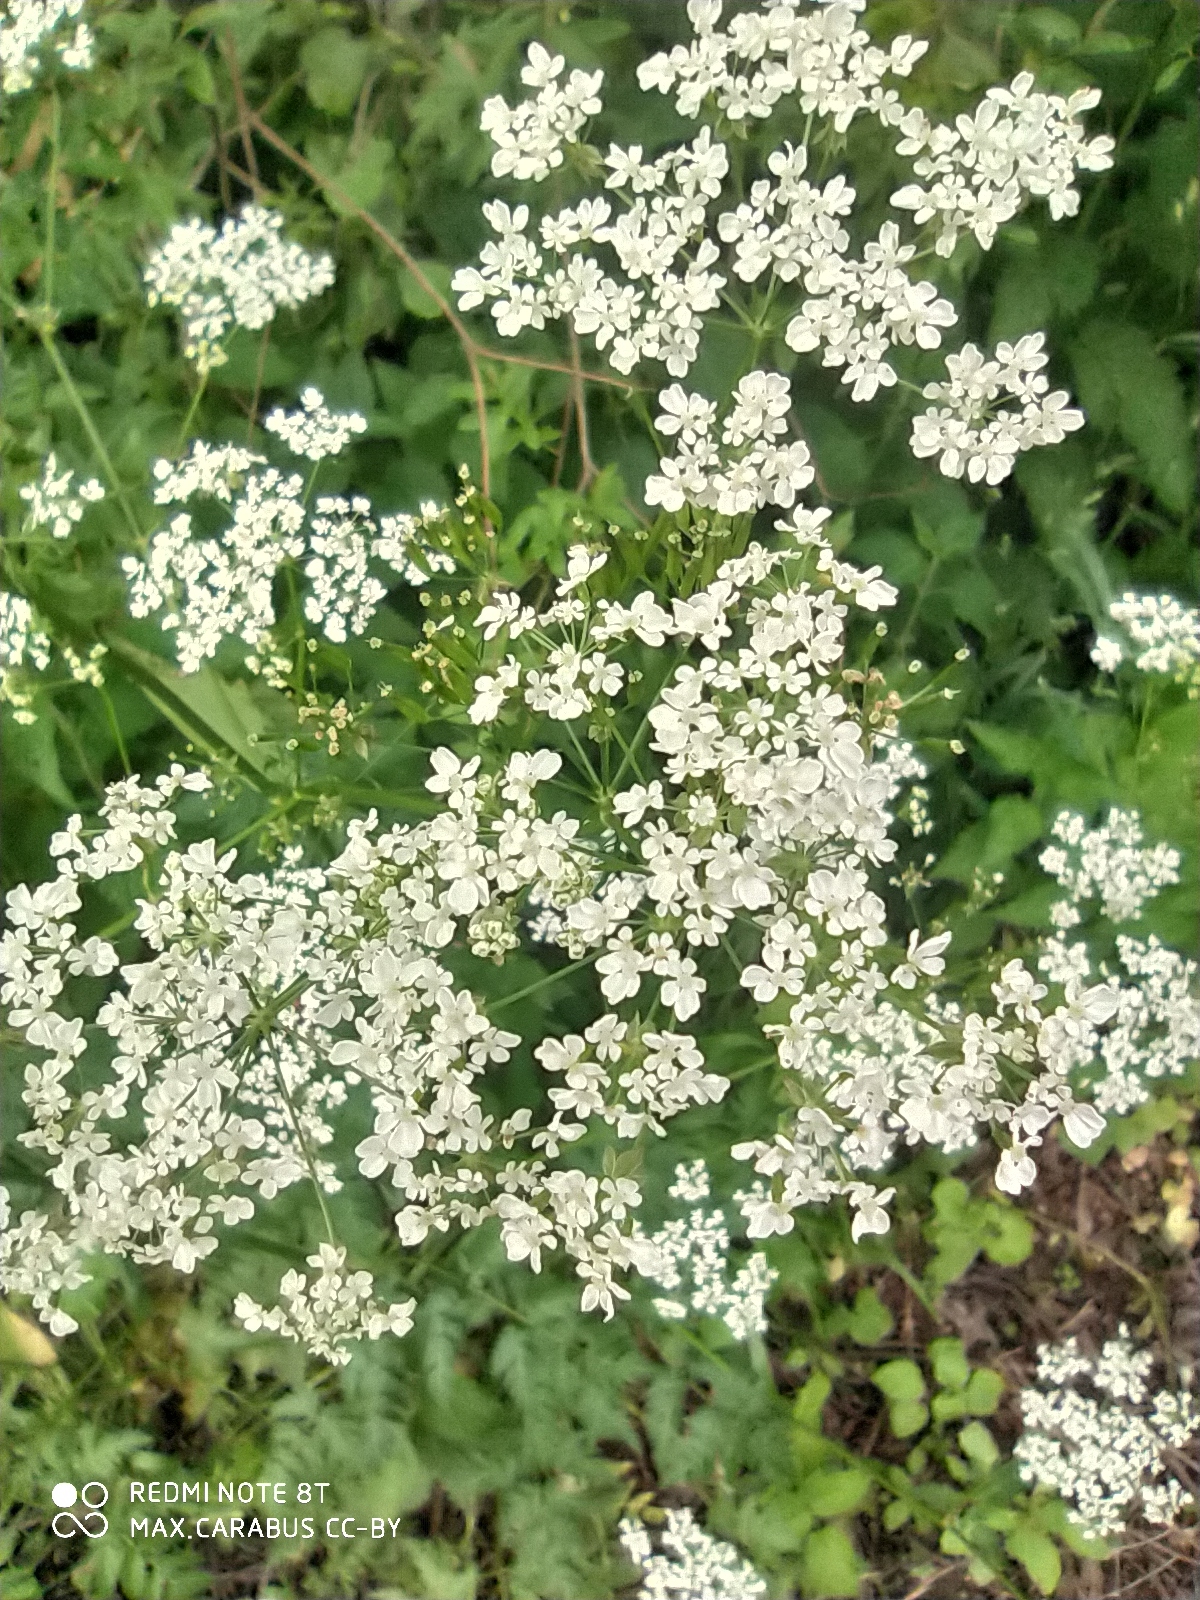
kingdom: Plantae
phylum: Tracheophyta
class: Magnoliopsida
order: Apiales
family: Apiaceae
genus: Anthriscus
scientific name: Anthriscus sylvestris
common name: Cow parsley
